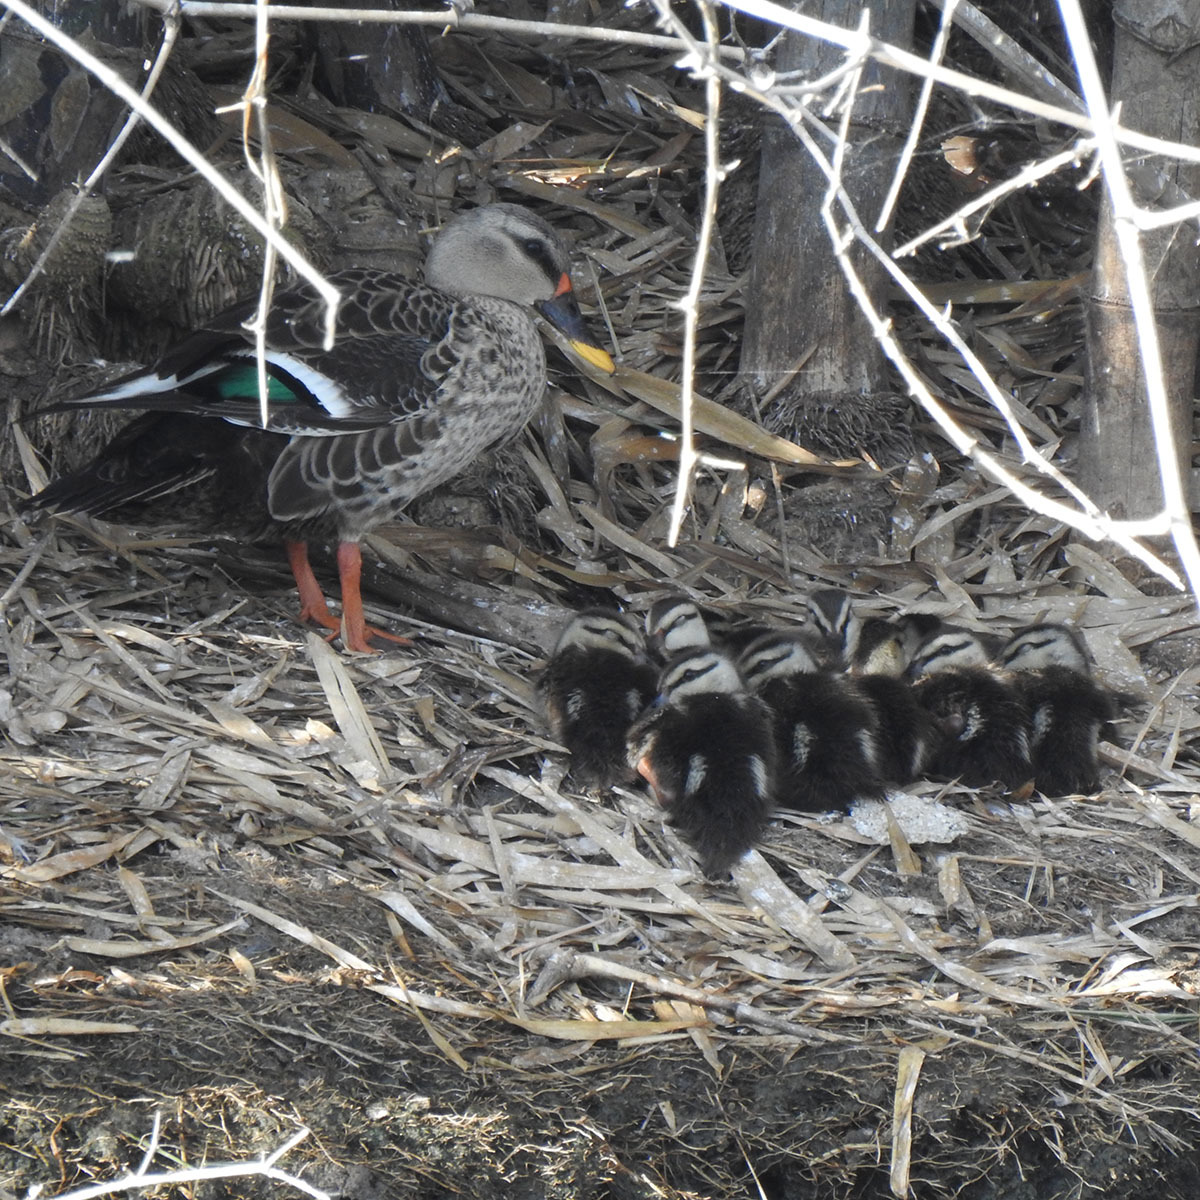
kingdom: Animalia
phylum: Chordata
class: Aves
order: Anseriformes
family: Anatidae
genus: Anas
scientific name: Anas poecilorhyncha
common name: Indian spot-billed duck
